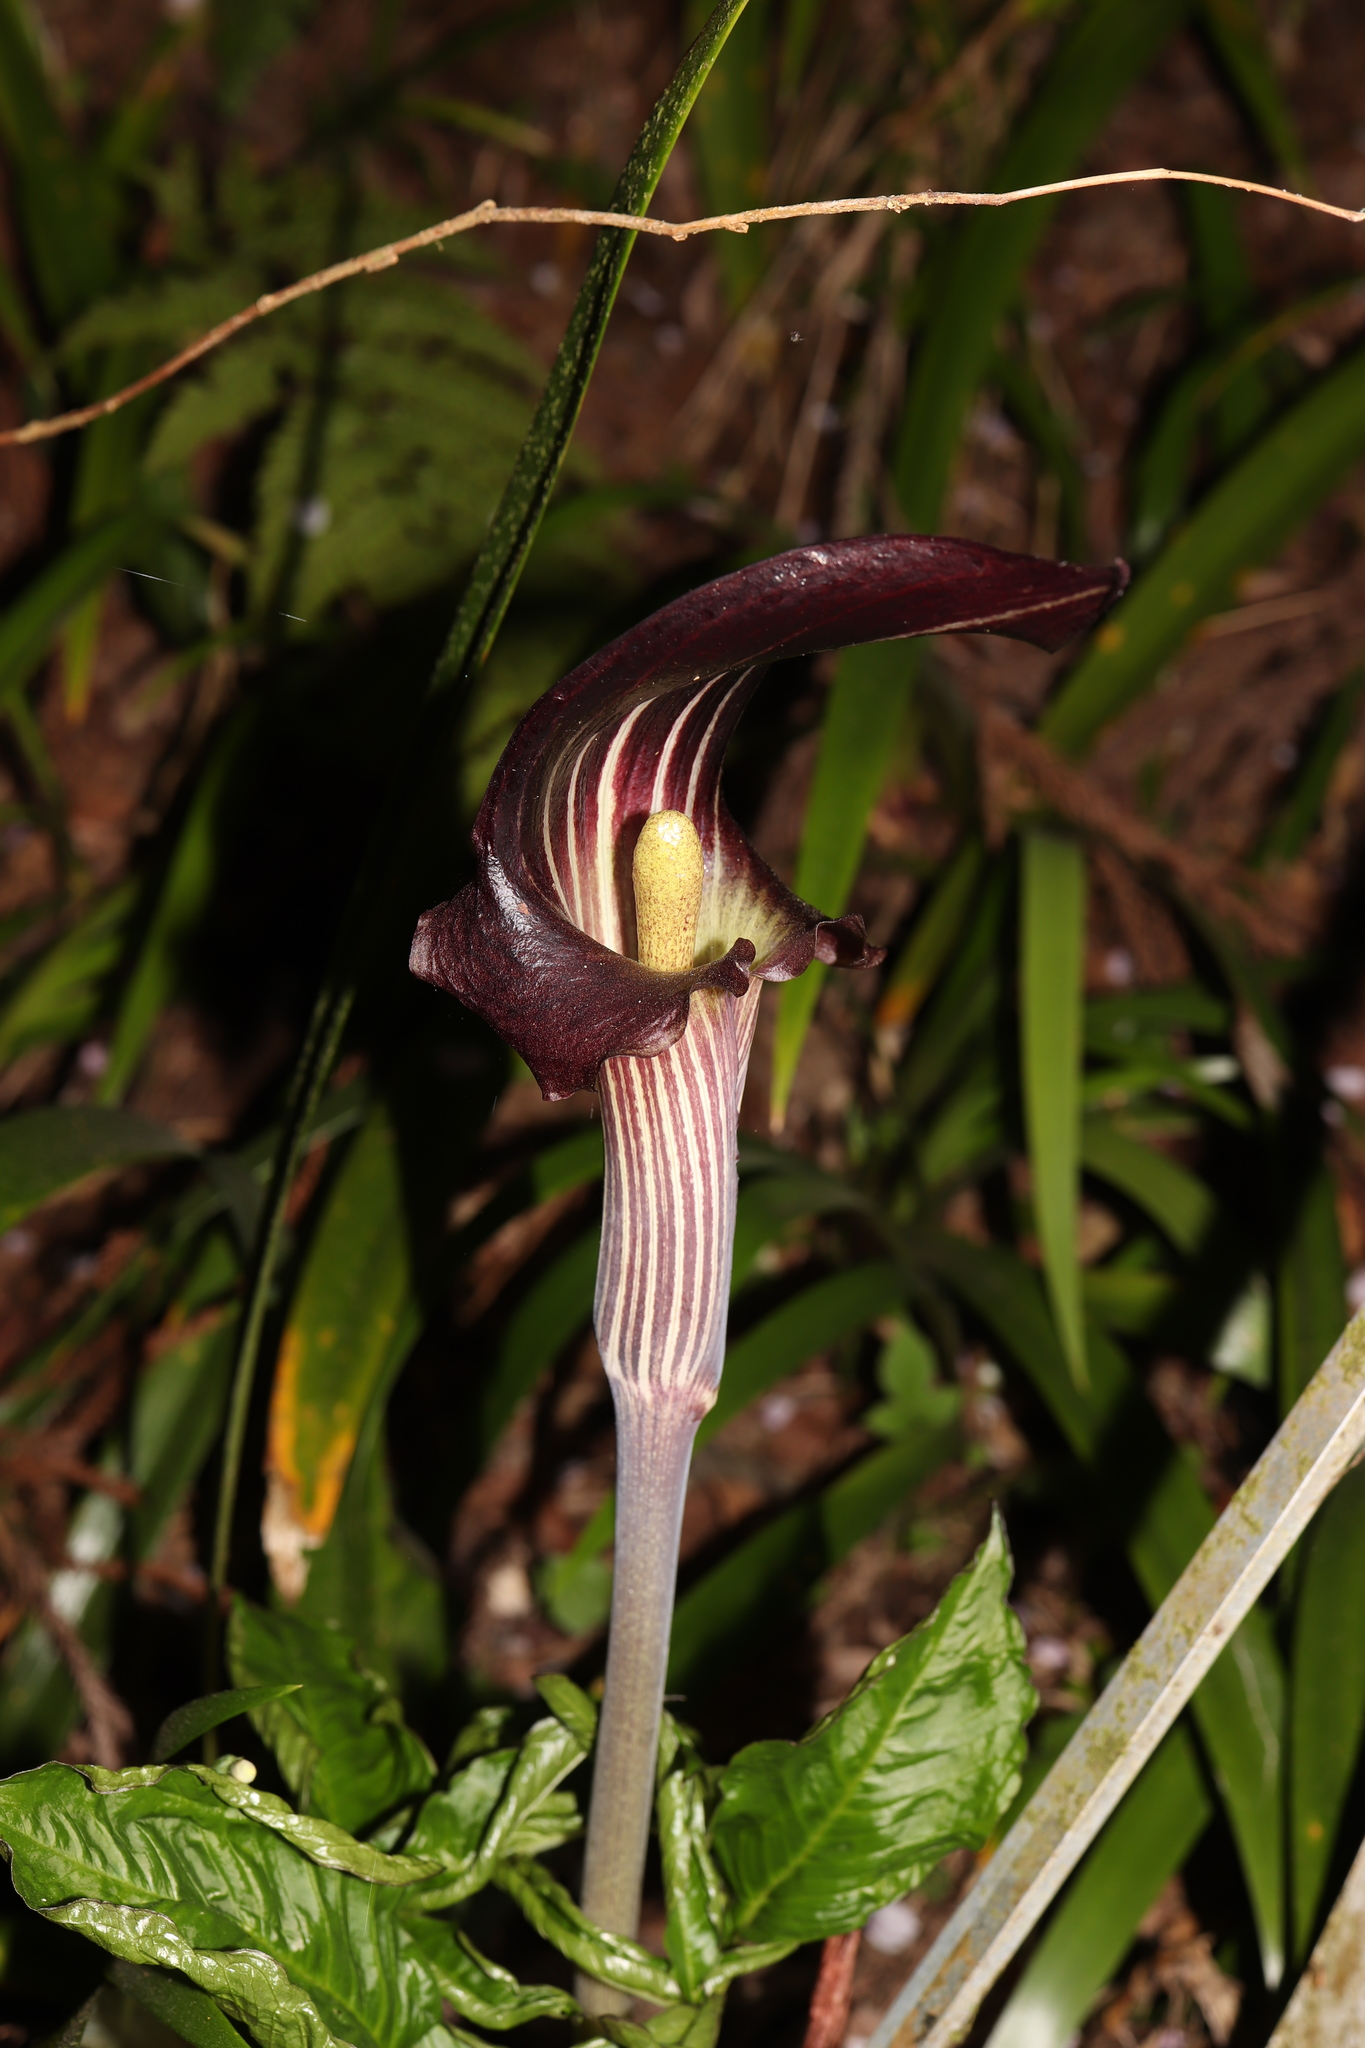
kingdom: Plantae
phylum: Tracheophyta
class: Liliopsida
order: Alismatales
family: Araceae
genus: Arisaema
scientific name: Arisaema limbatum
